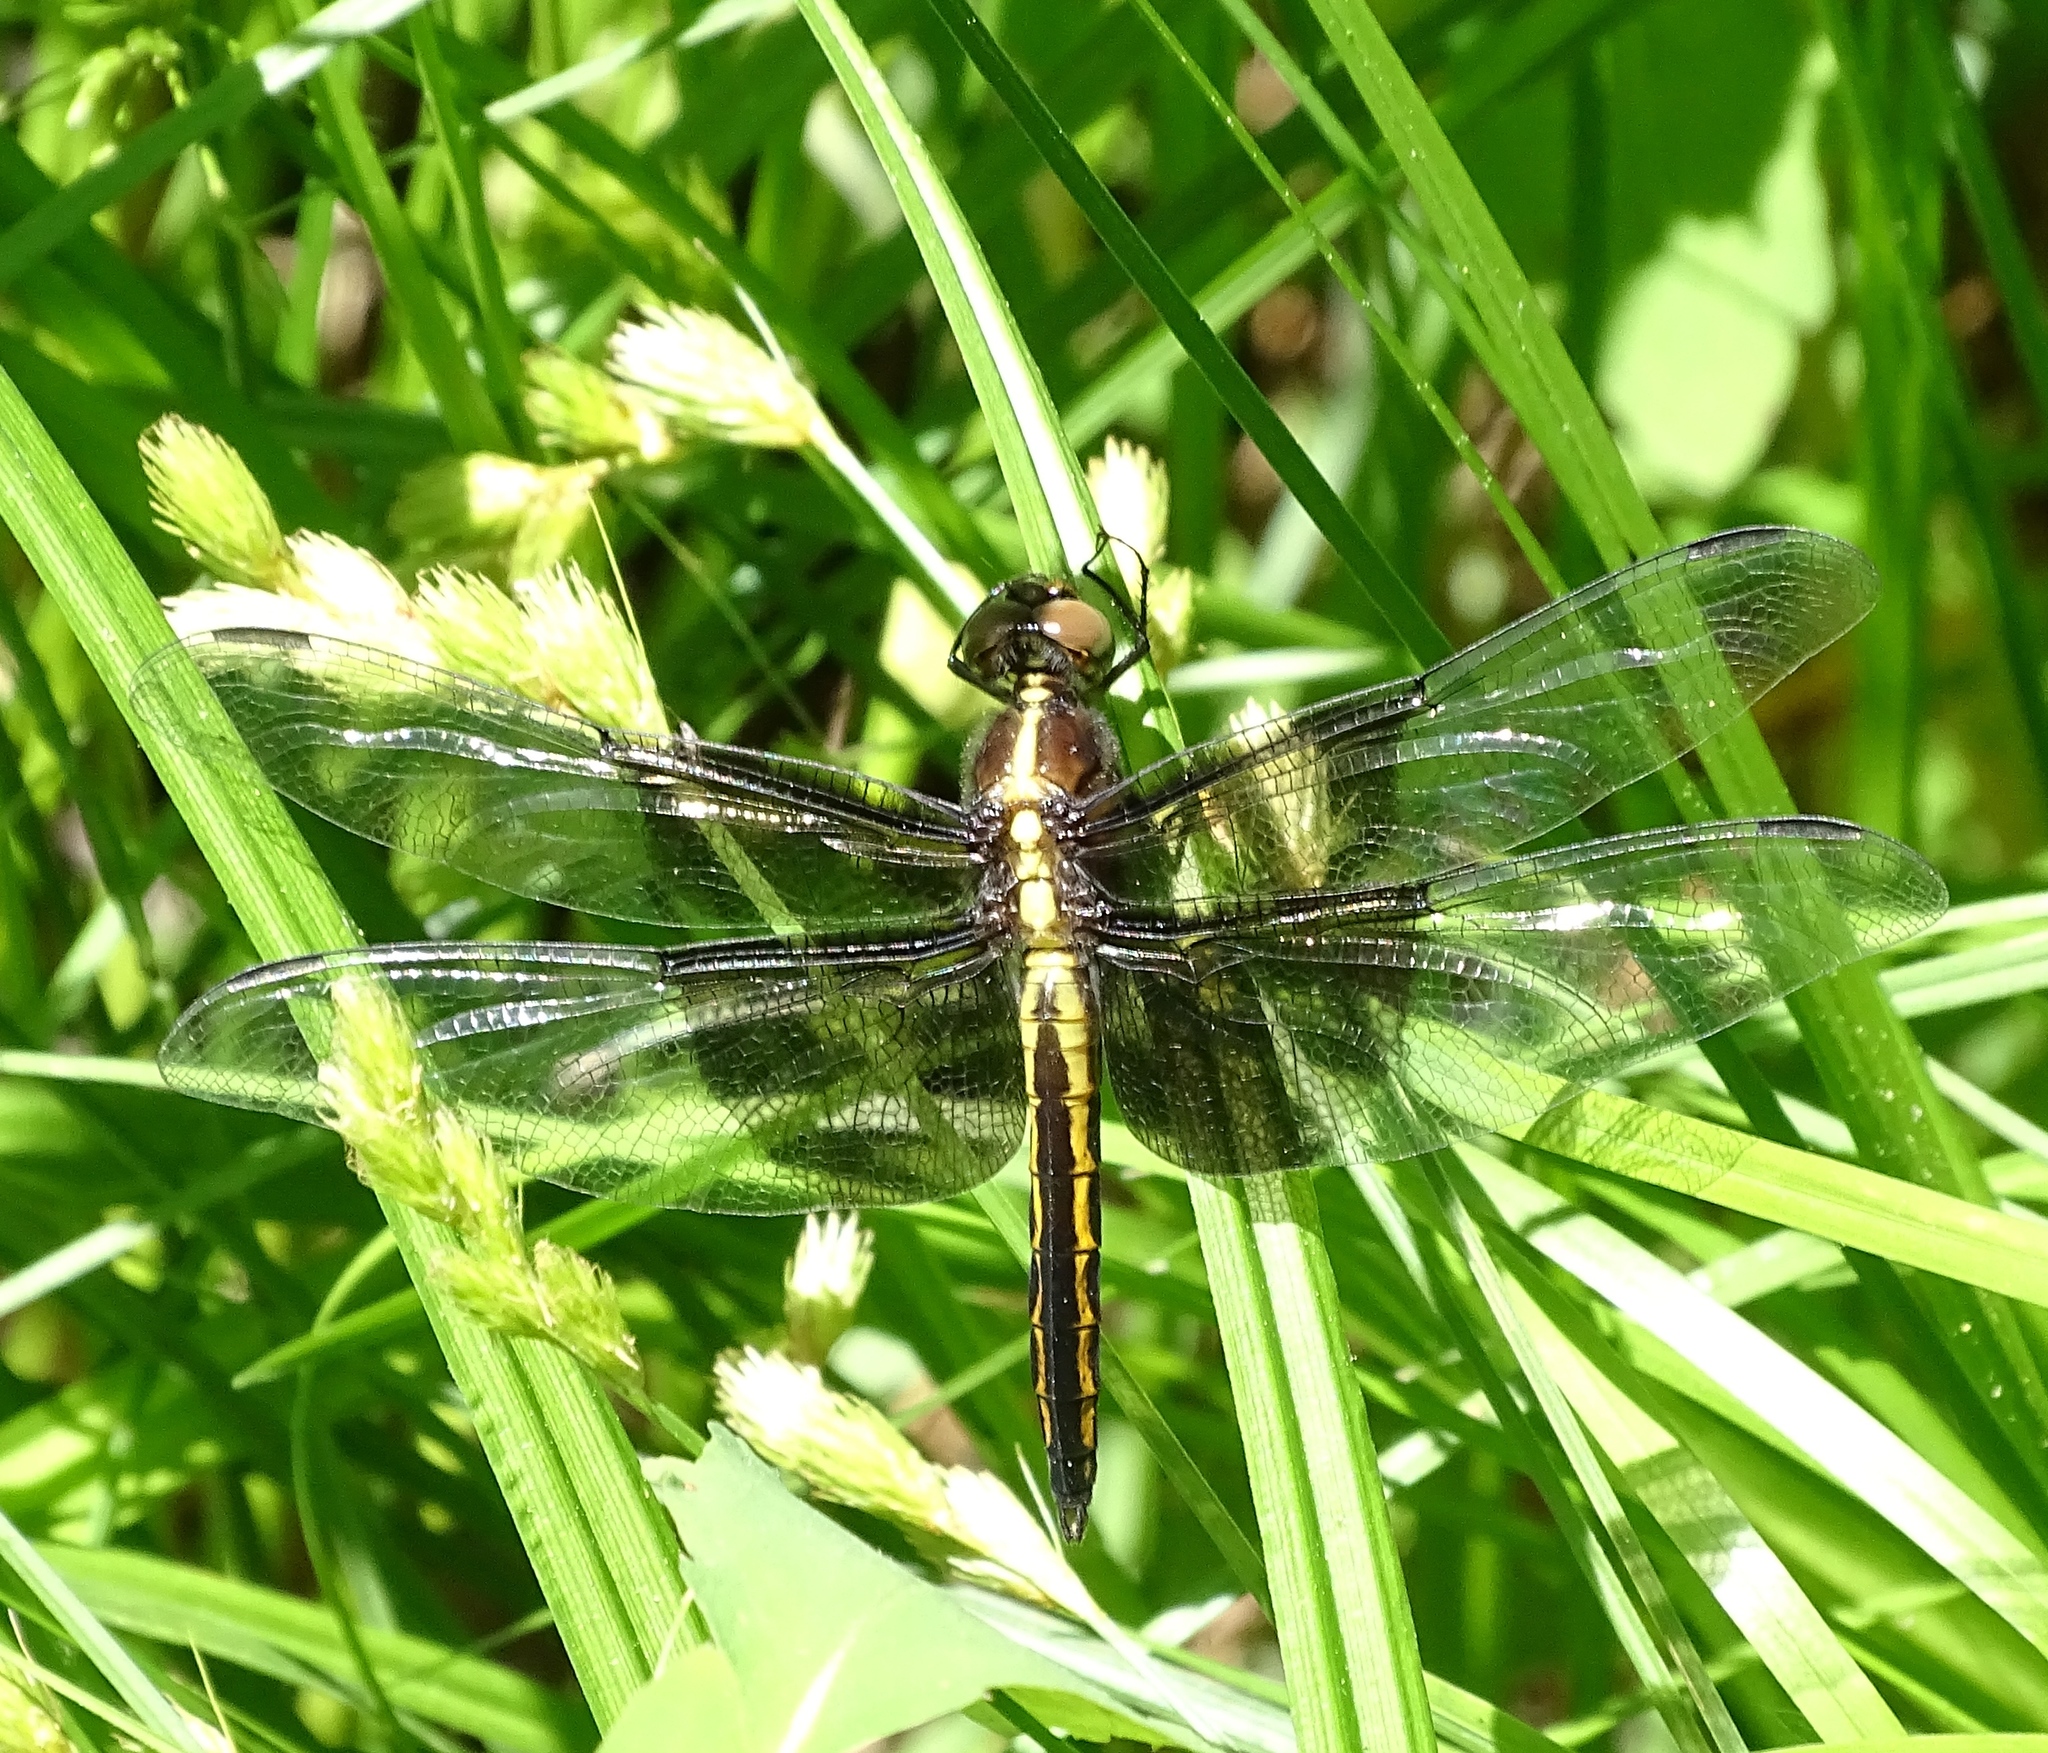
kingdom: Animalia
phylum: Arthropoda
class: Insecta
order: Odonata
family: Libellulidae
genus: Libellula
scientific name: Libellula luctuosa
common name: Widow skimmer
